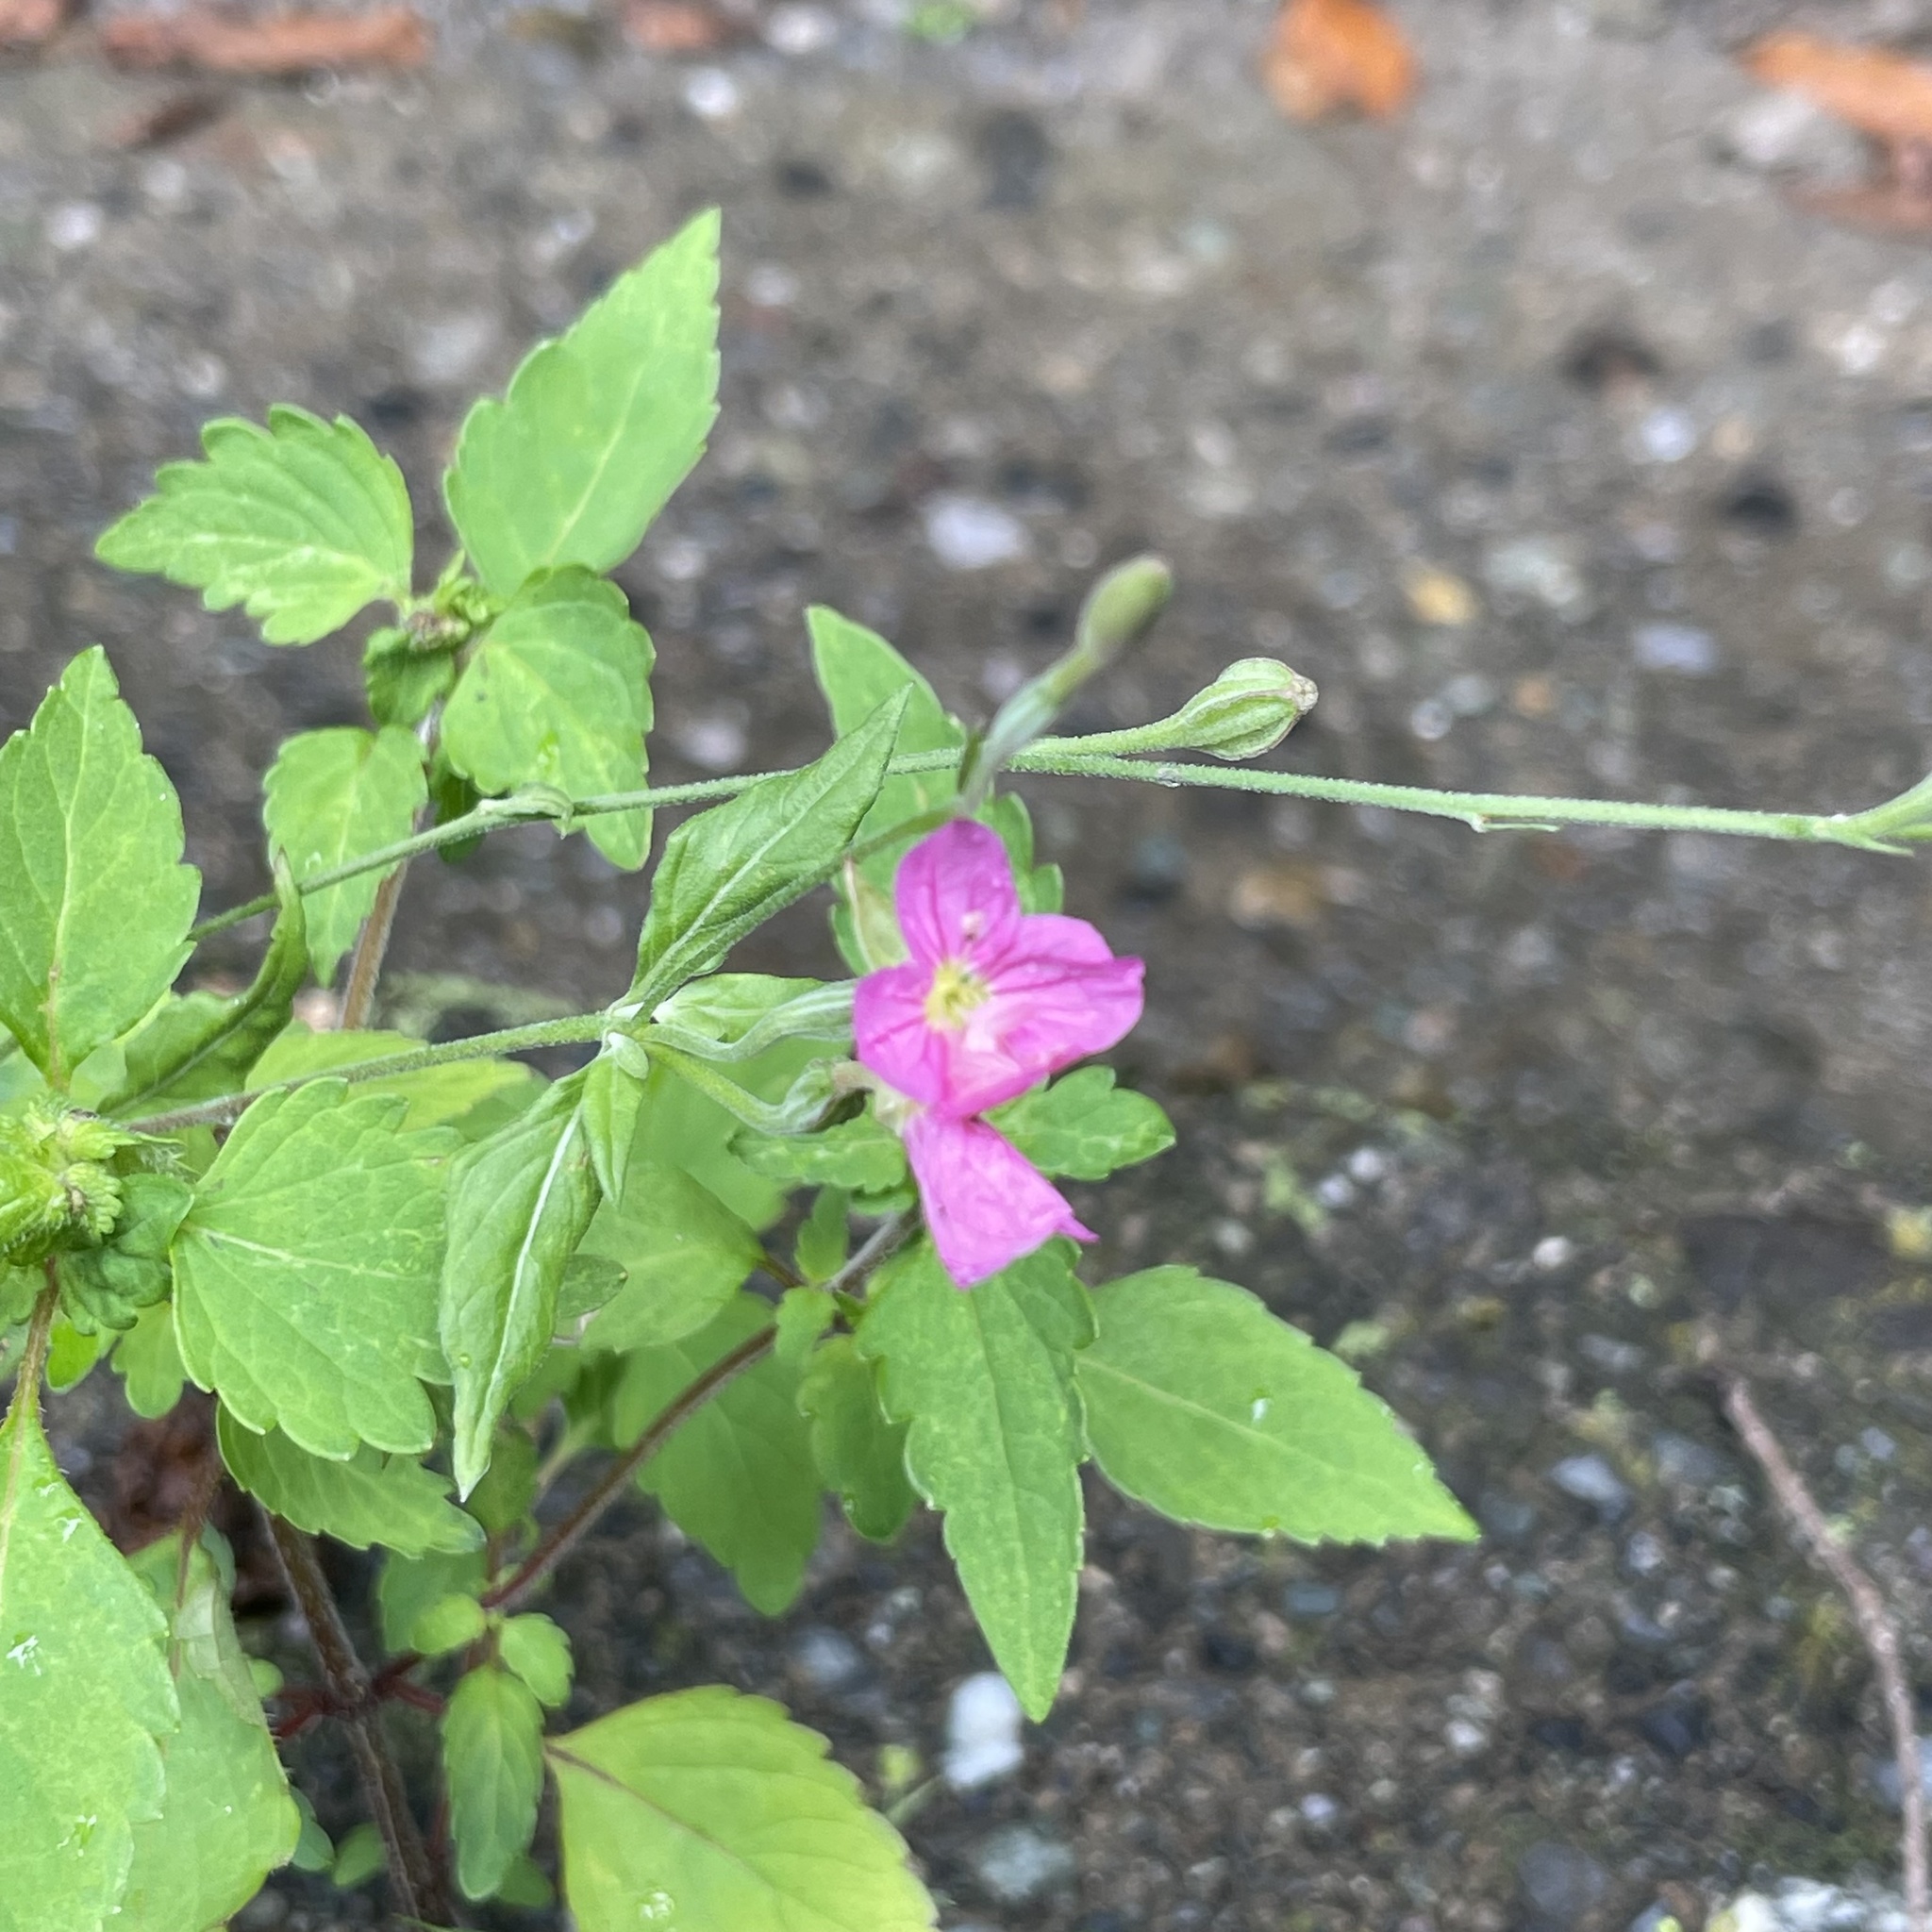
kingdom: Plantae
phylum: Tracheophyta
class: Magnoliopsida
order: Myrtales
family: Onagraceae
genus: Oenothera
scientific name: Oenothera rosea
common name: Rosy evening-primrose
